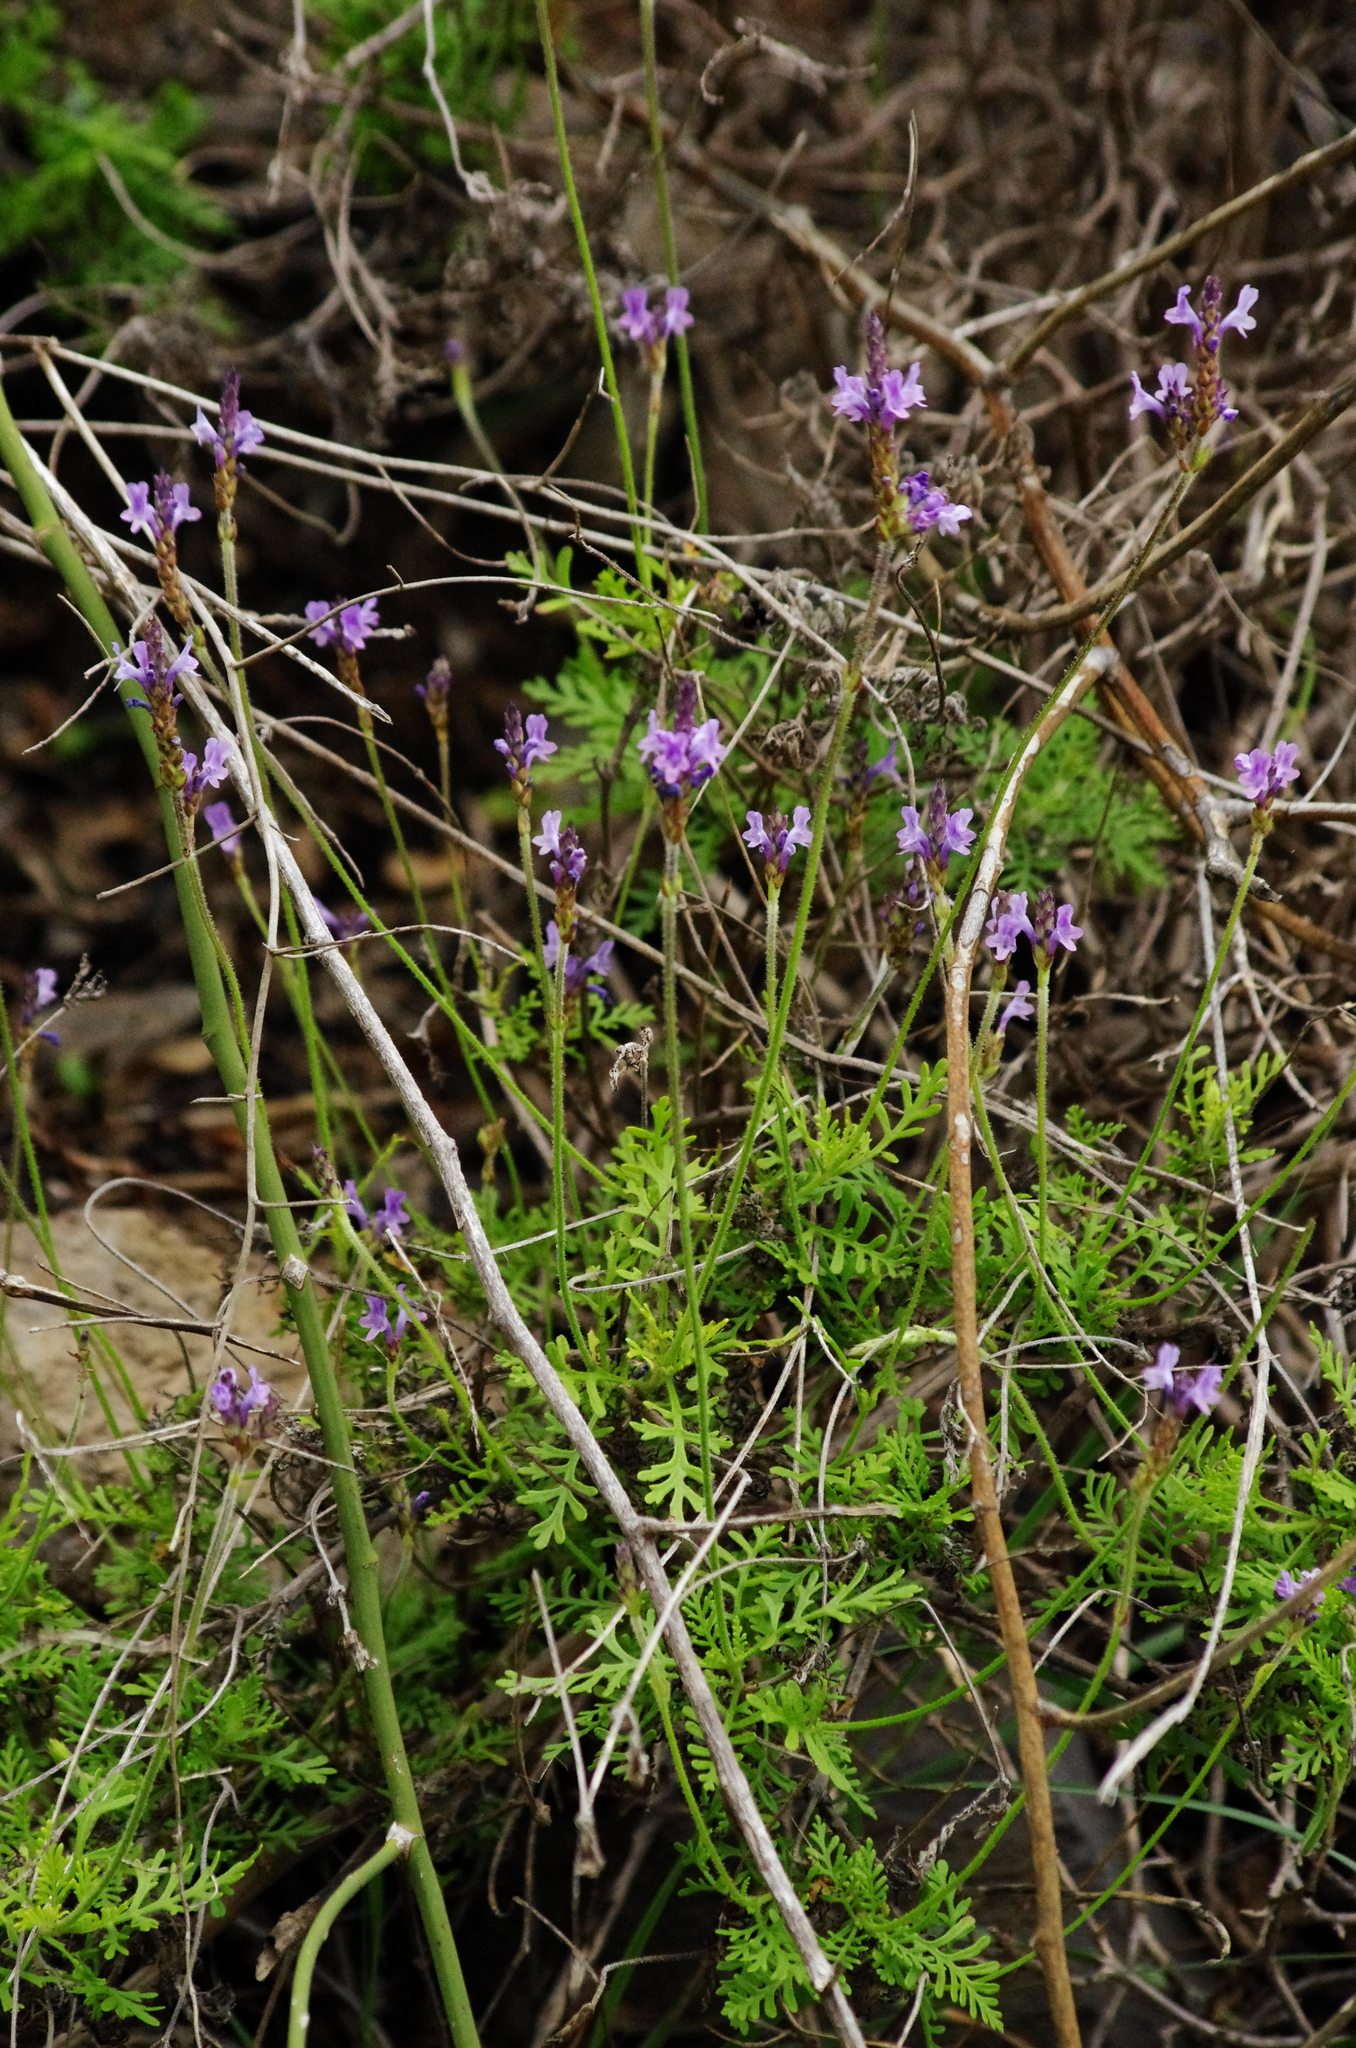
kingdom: Plantae
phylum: Tracheophyta
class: Magnoliopsida
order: Lamiales
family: Lamiaceae
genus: Lavandula
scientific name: Lavandula canariensis
